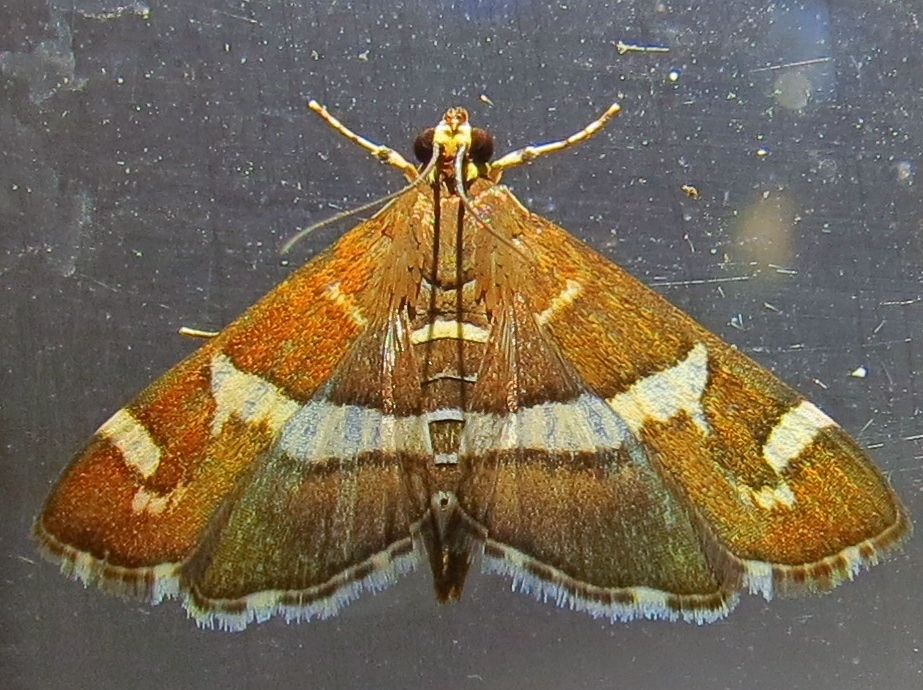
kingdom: Animalia
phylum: Arthropoda
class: Insecta
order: Lepidoptera
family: Crambidae
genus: Spoladea
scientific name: Spoladea recurvalis
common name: Beet webworm moth
